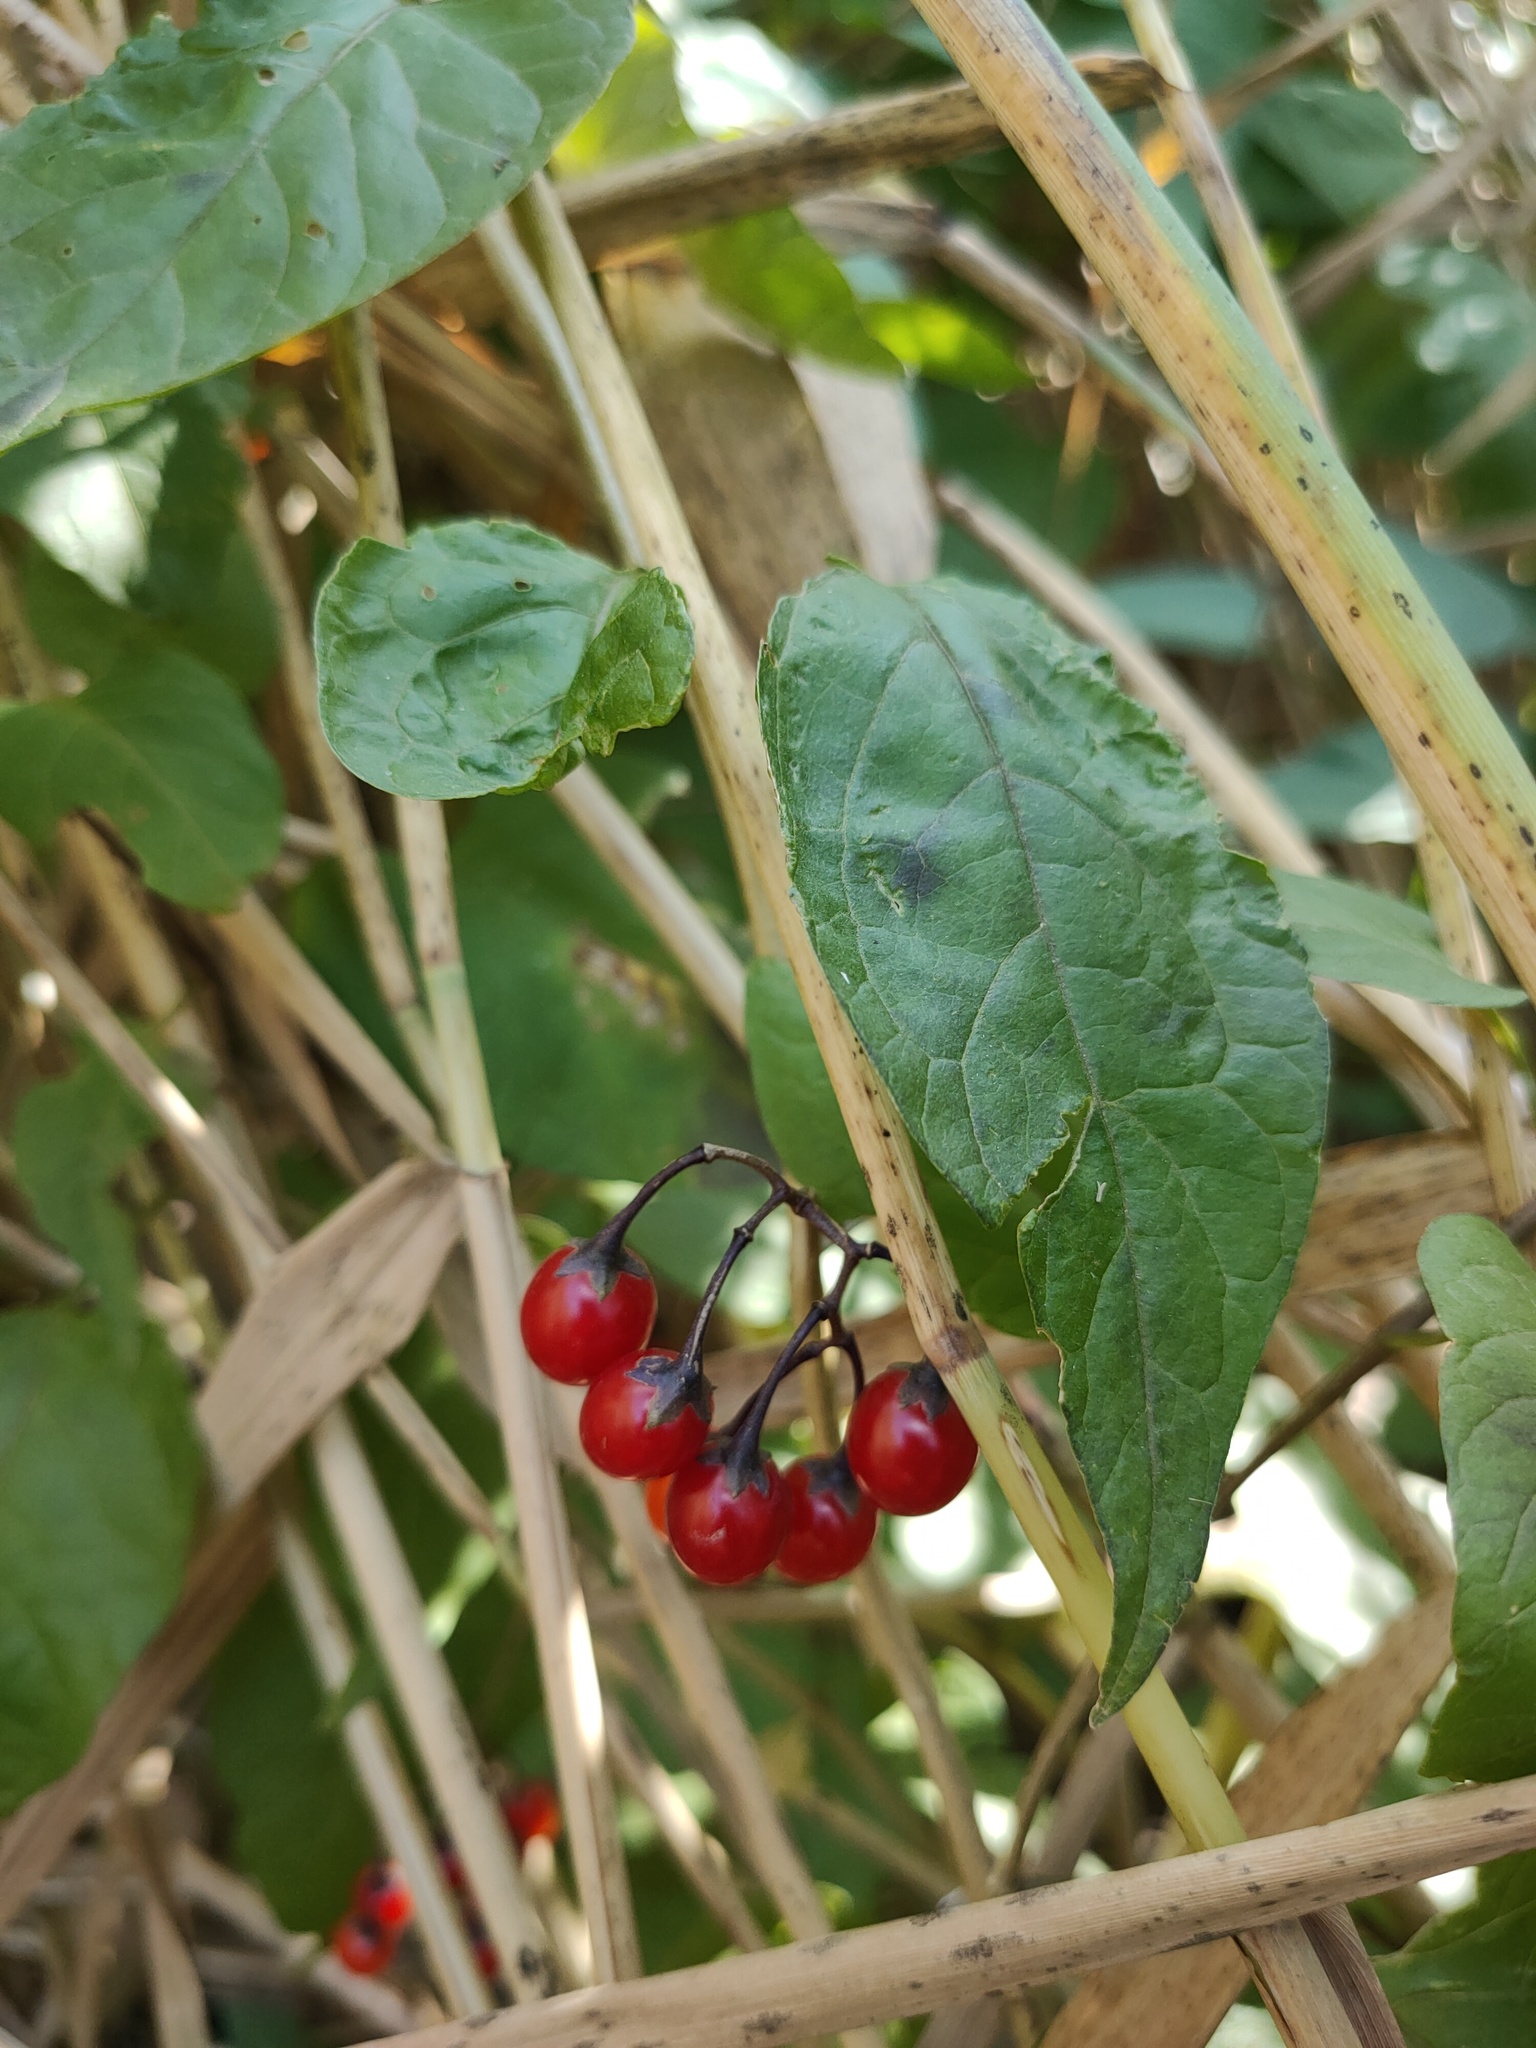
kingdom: Plantae
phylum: Tracheophyta
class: Magnoliopsida
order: Solanales
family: Solanaceae
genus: Solanum
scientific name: Solanum dulcamara
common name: Climbing nightshade
